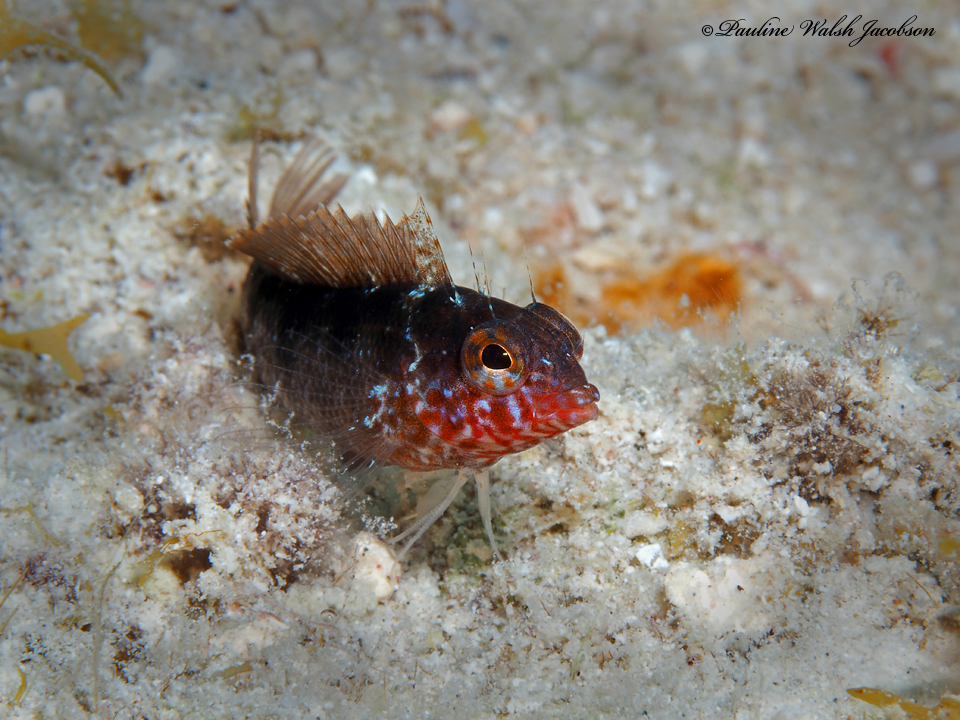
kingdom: Animalia
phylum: Chordata
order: Perciformes
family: Labrisomidae
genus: Malacoctenus
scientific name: Malacoctenus macropus
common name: Rosy blenny
